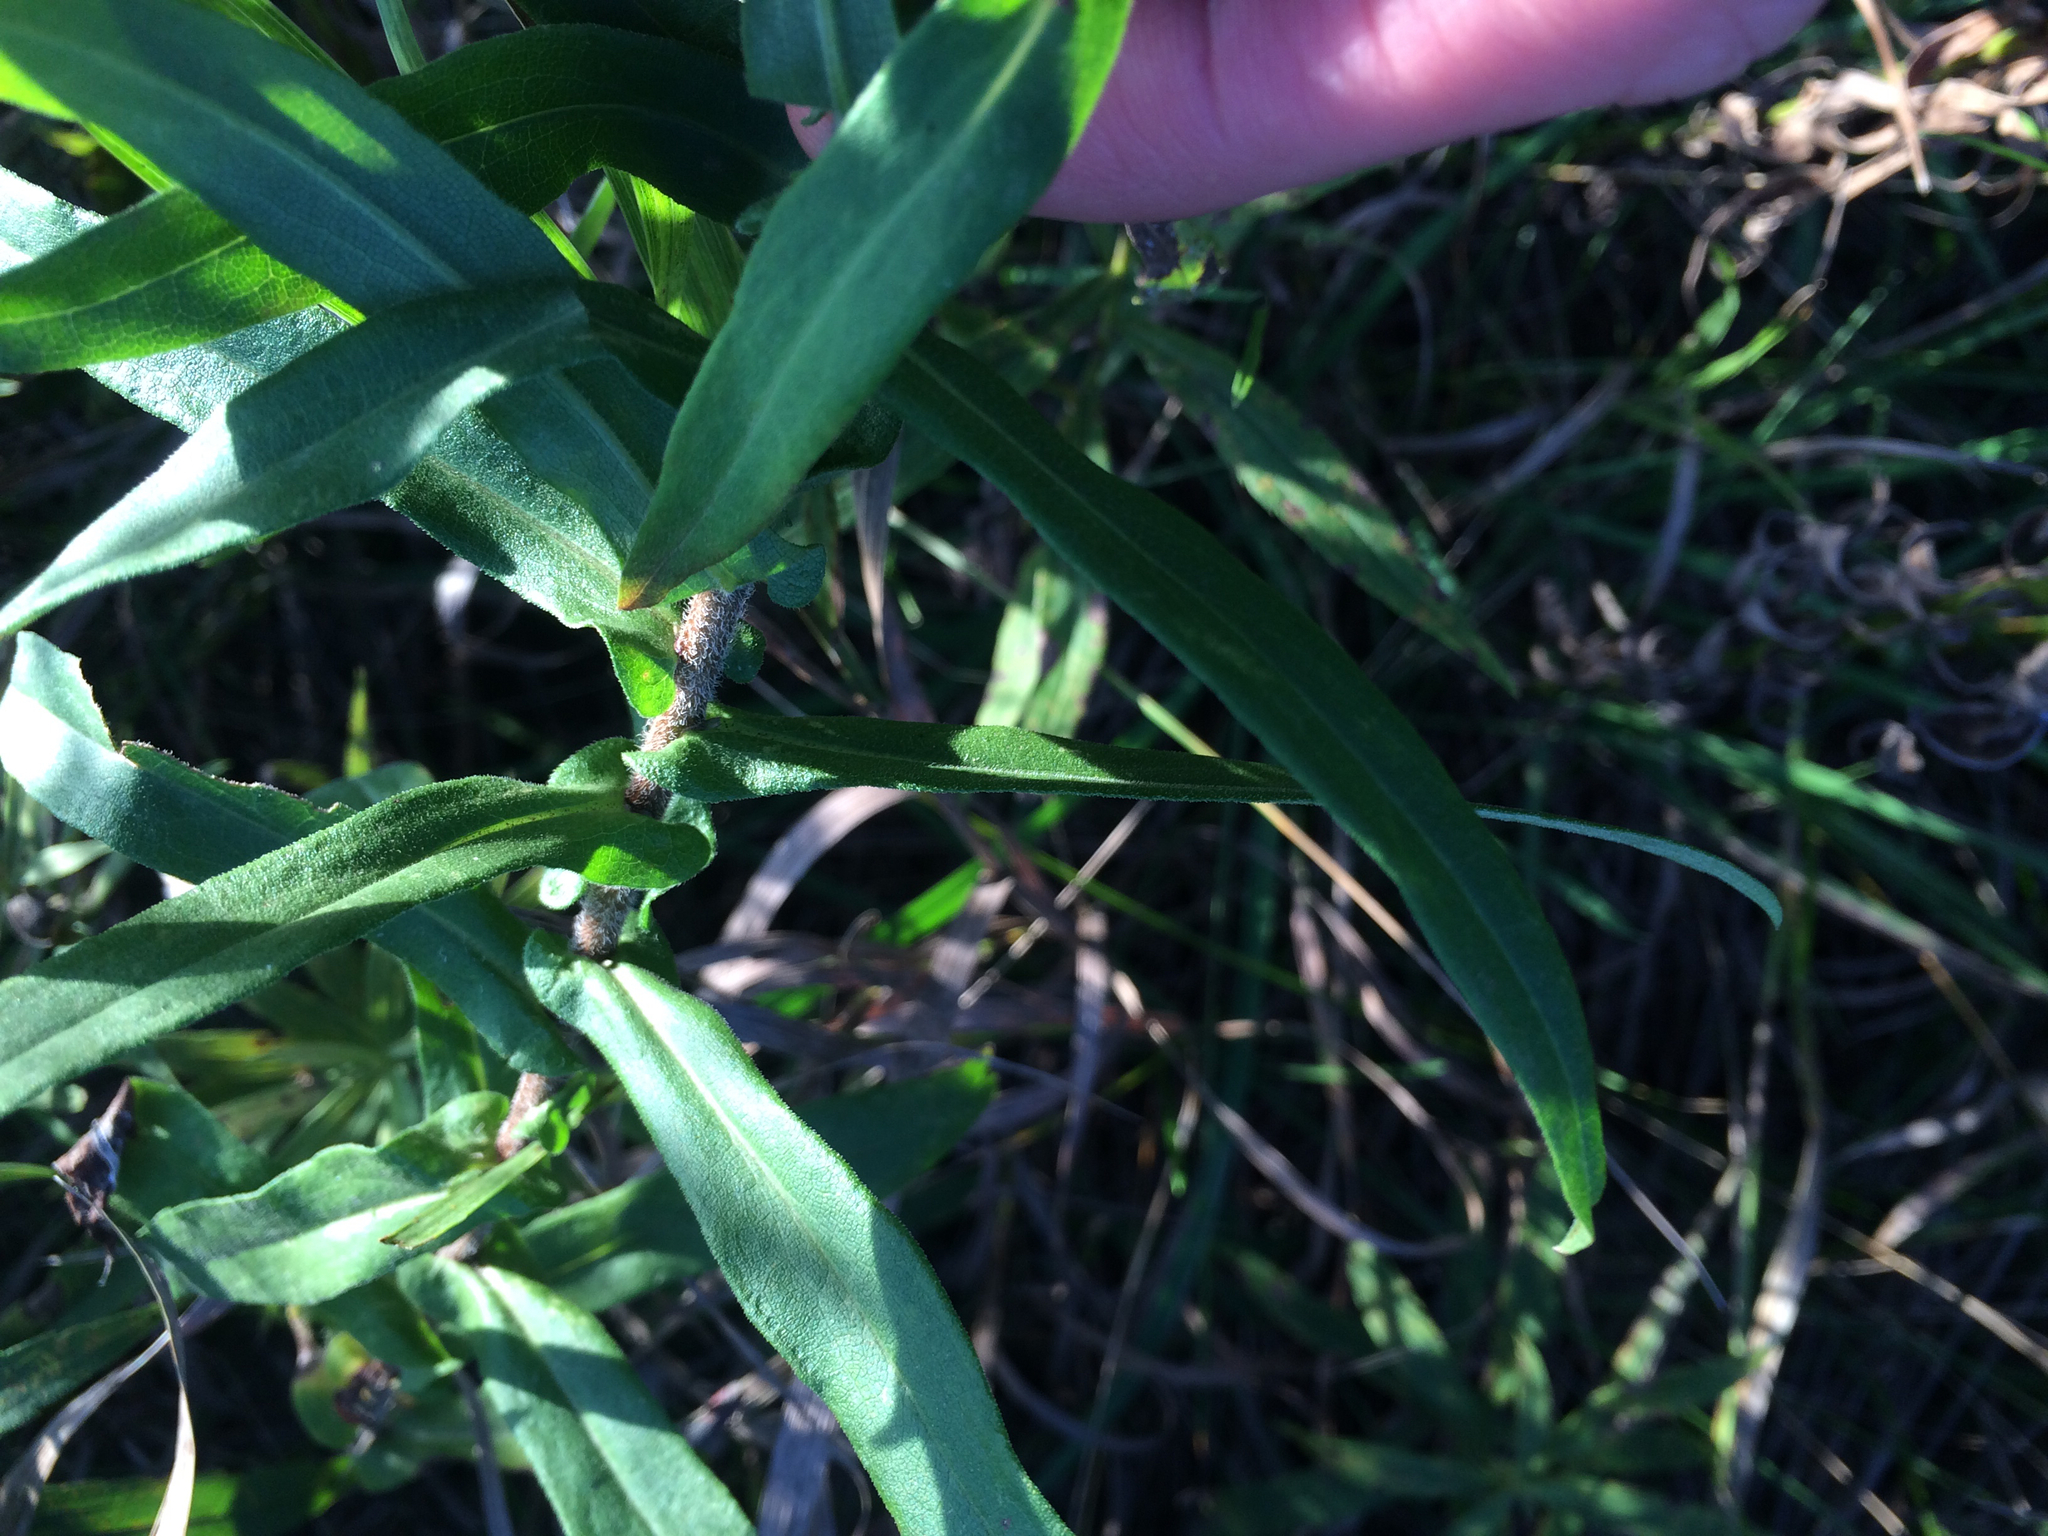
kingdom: Plantae
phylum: Tracheophyta
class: Magnoliopsida
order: Asterales
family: Asteraceae
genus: Symphyotrichum
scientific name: Symphyotrichum novae-angliae
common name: Michaelmas daisy
